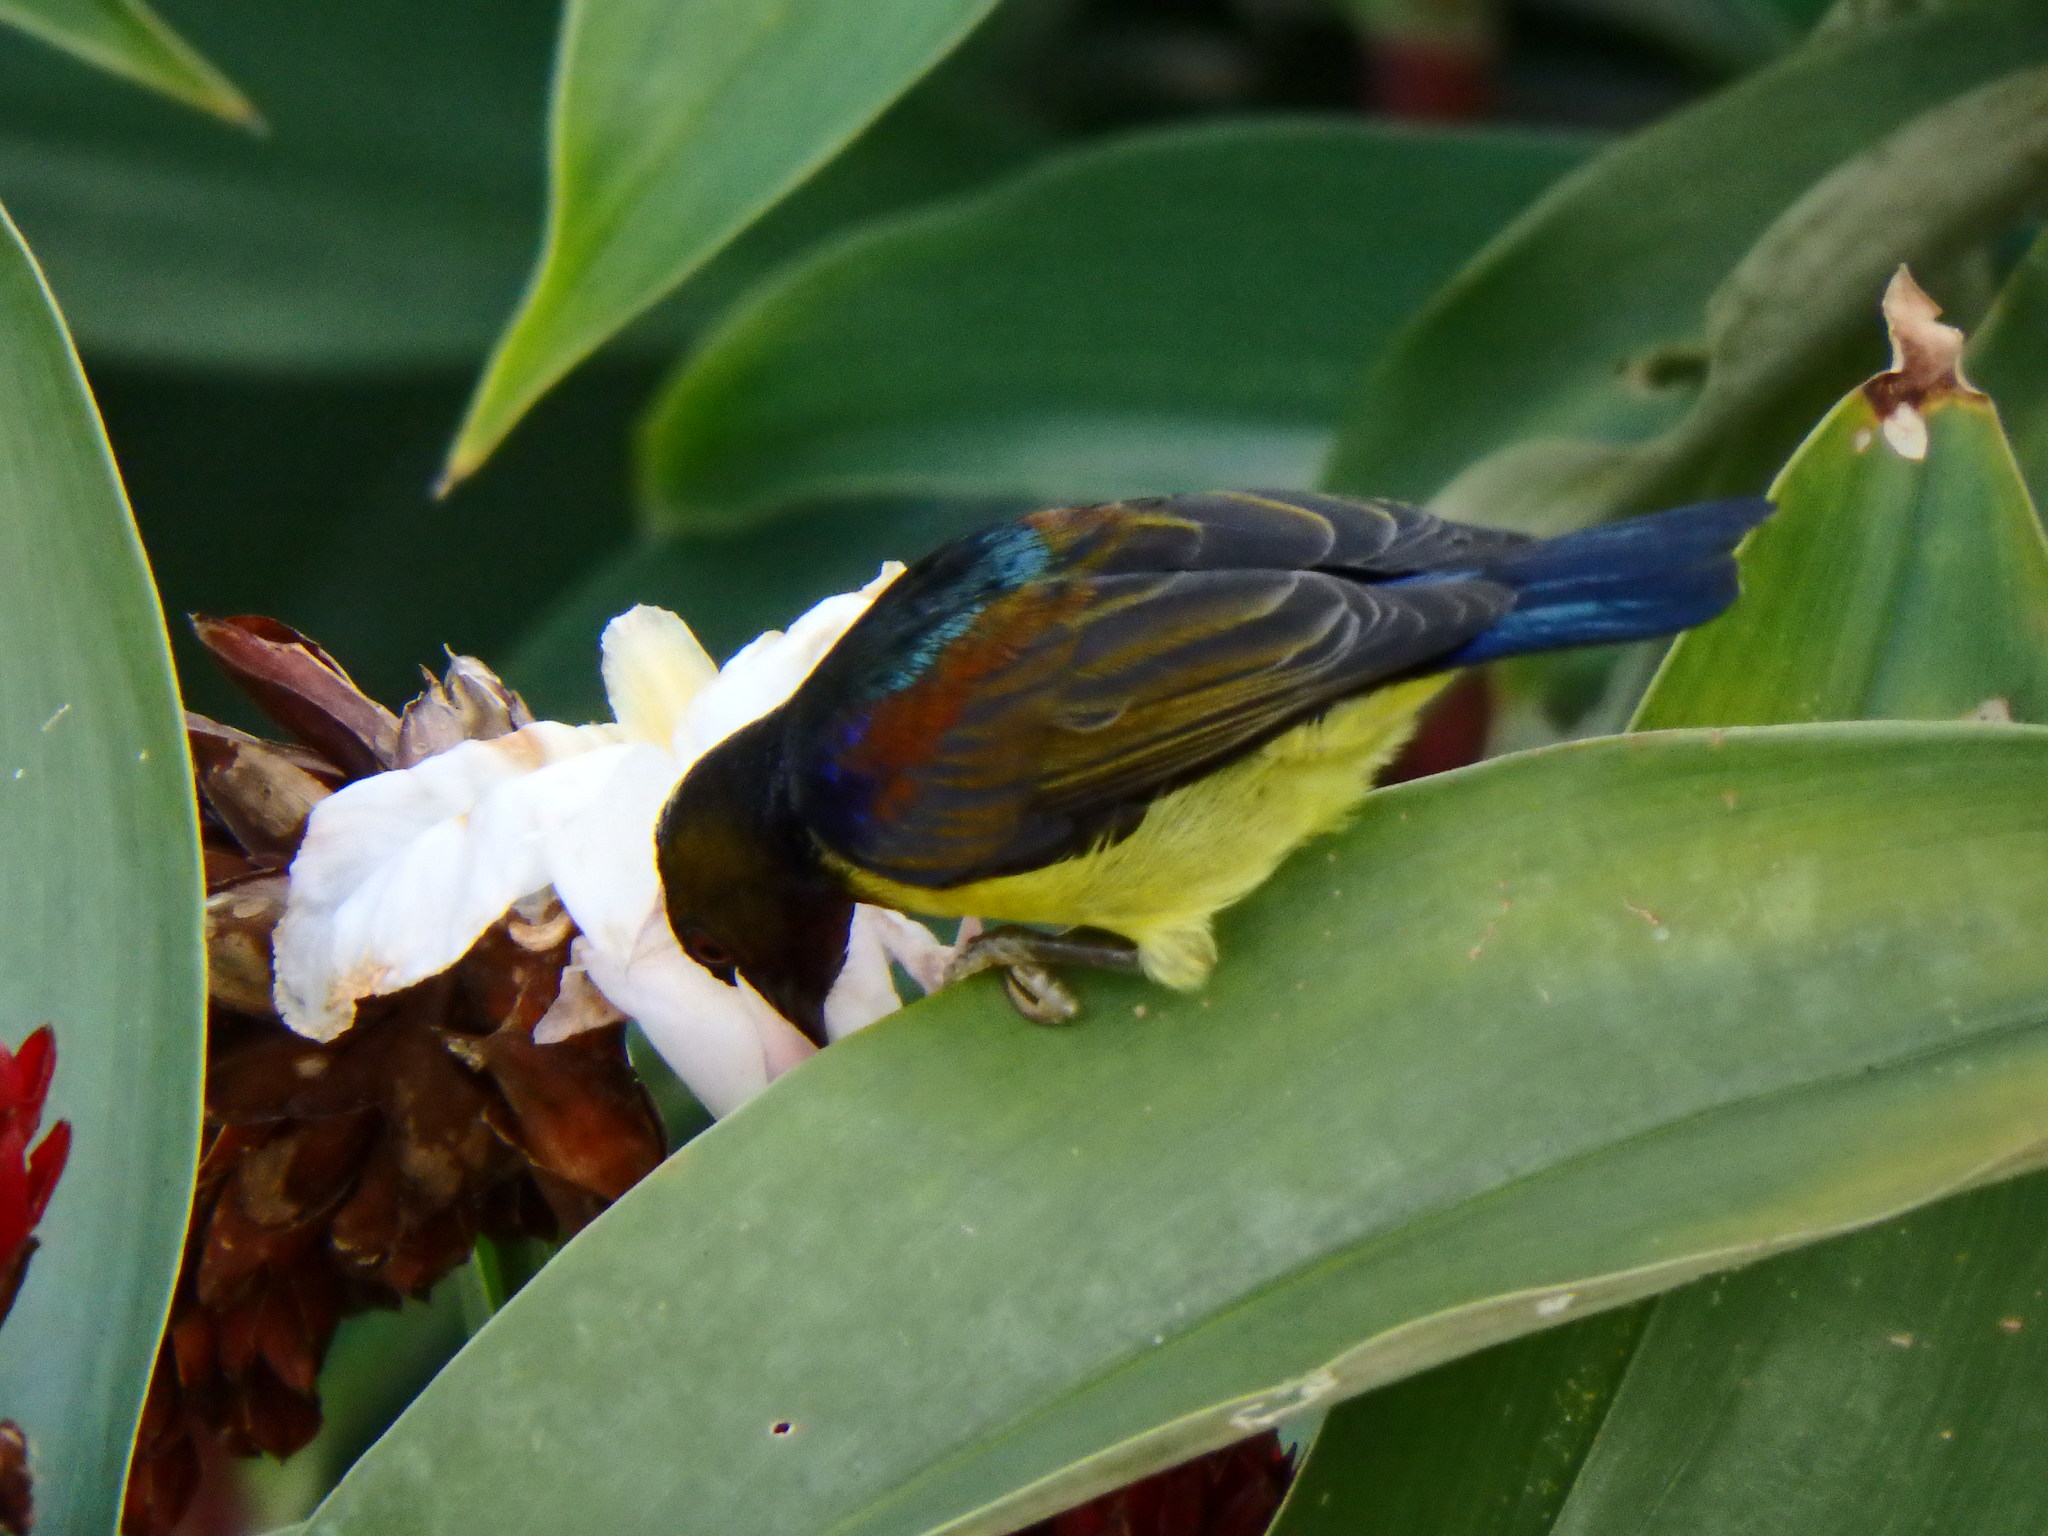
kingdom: Animalia
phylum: Chordata
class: Aves
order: Passeriformes
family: Nectariniidae
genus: Anthreptes
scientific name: Anthreptes malacensis
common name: Brown-throated sunbird
